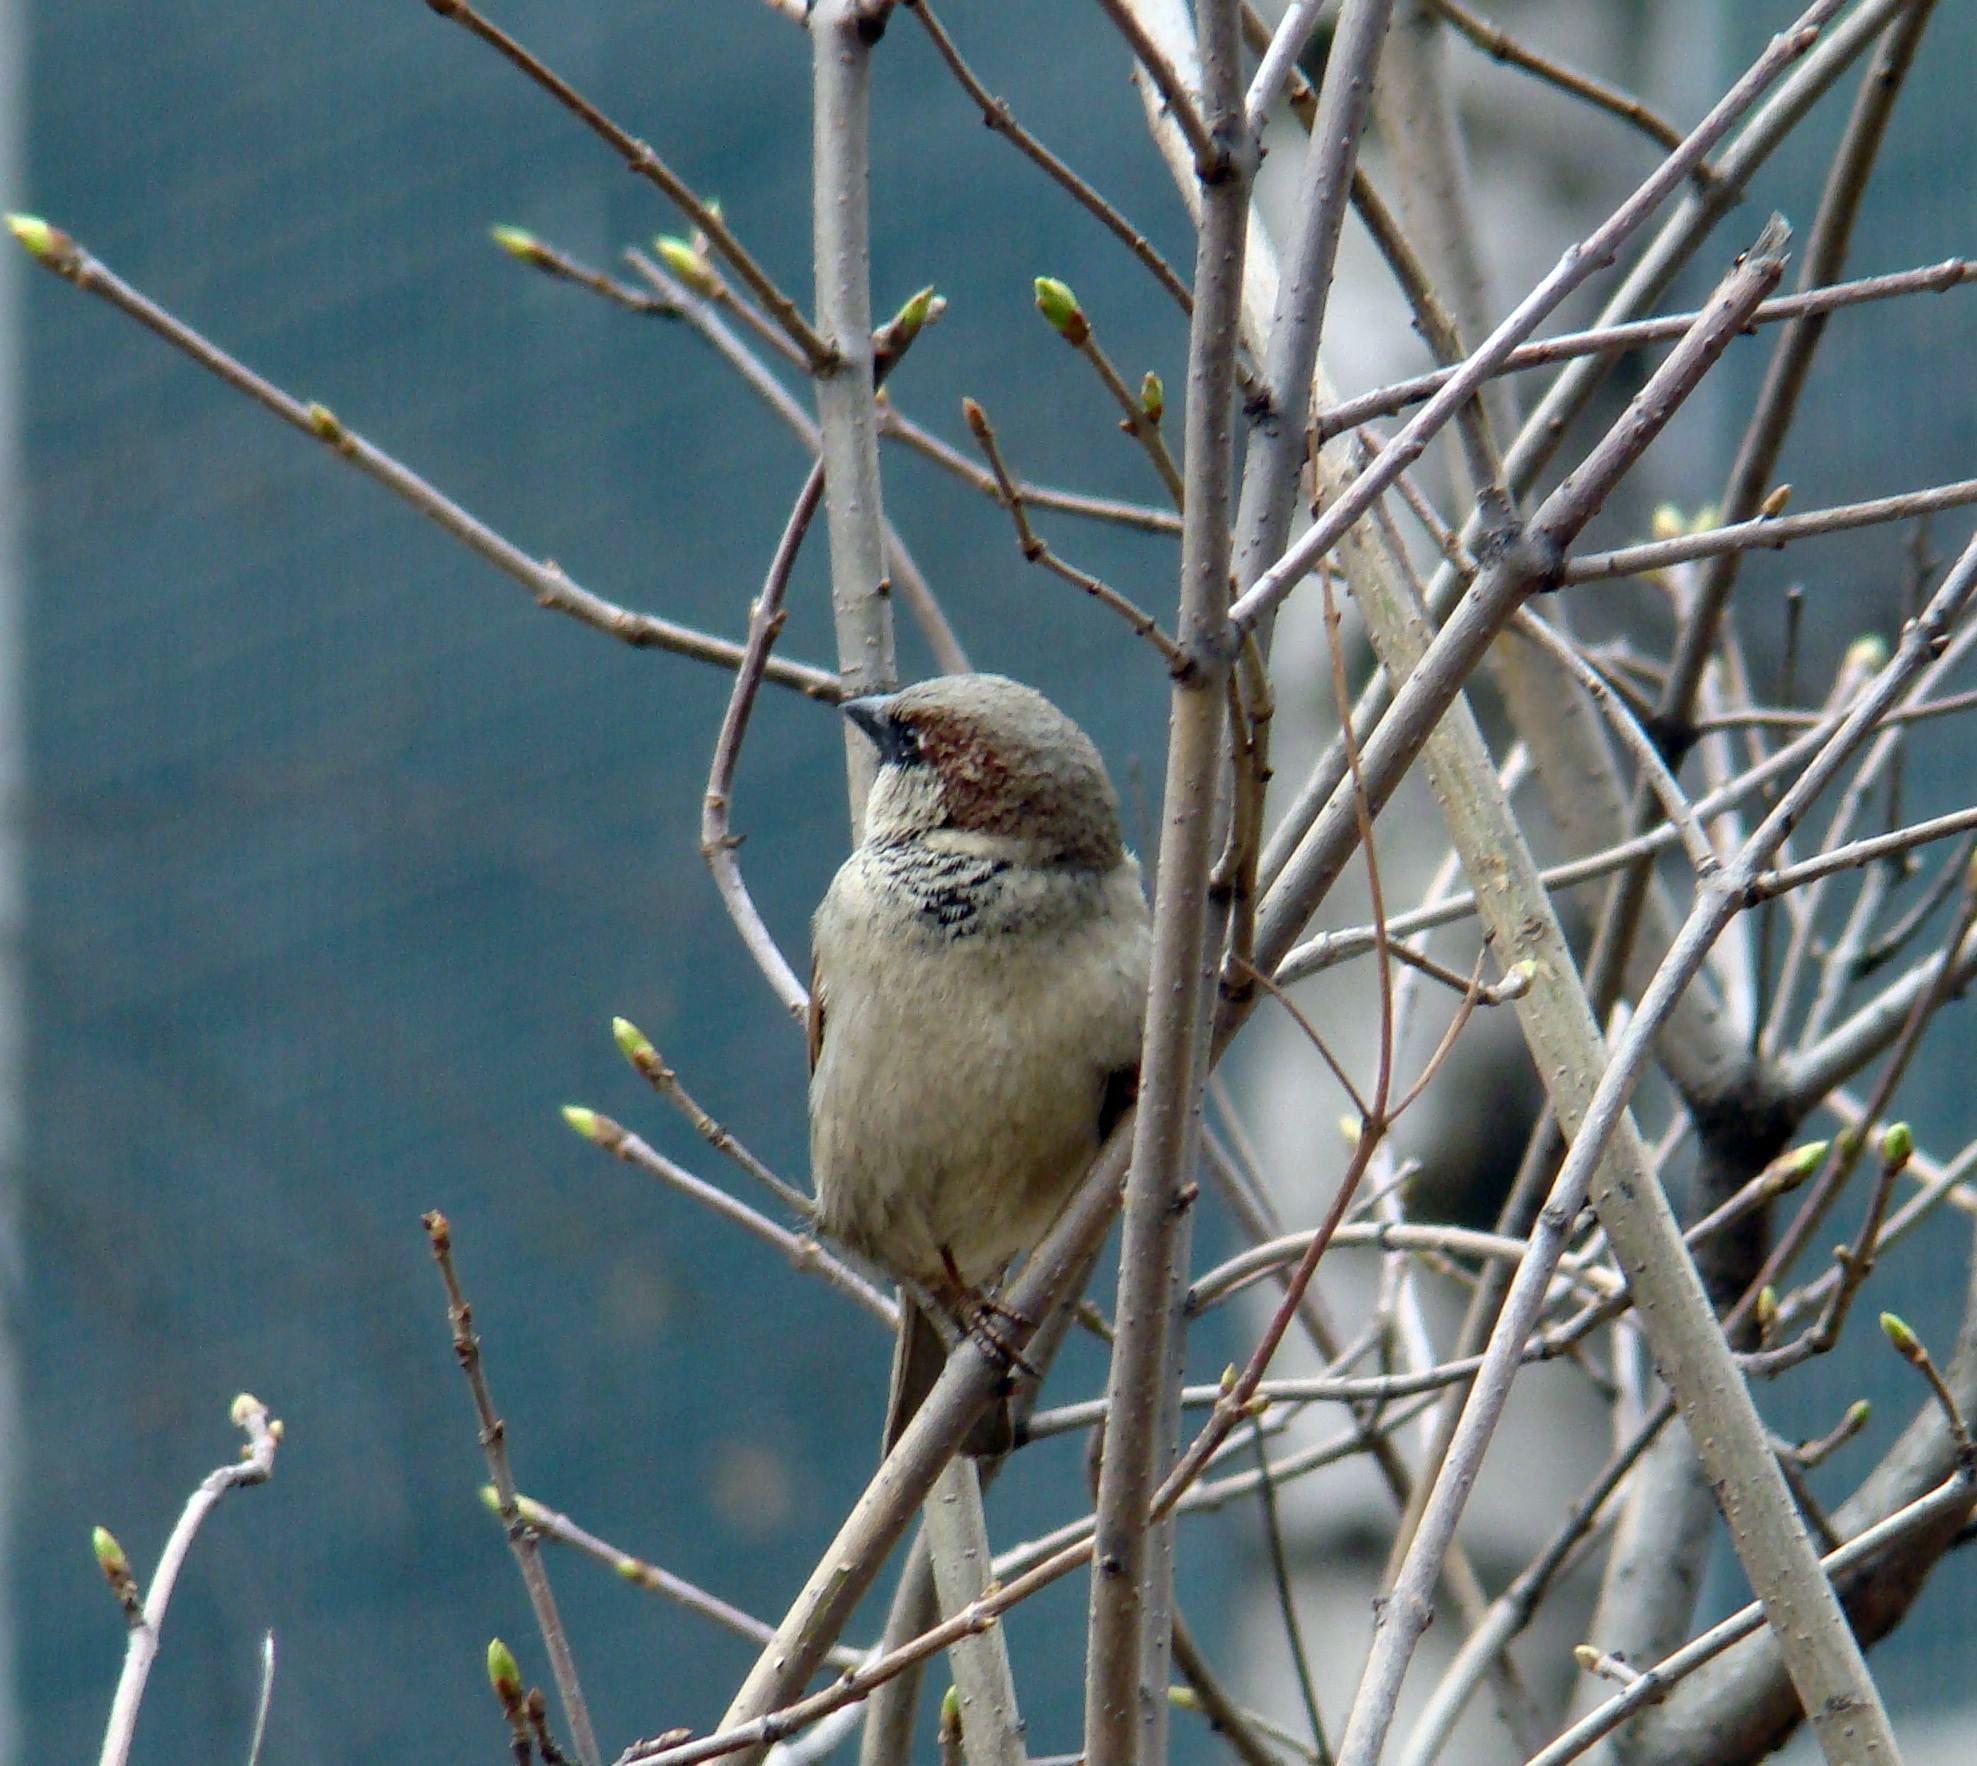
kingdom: Animalia
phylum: Chordata
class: Aves
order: Passeriformes
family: Passeridae
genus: Passer
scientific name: Passer domesticus
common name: House sparrow
